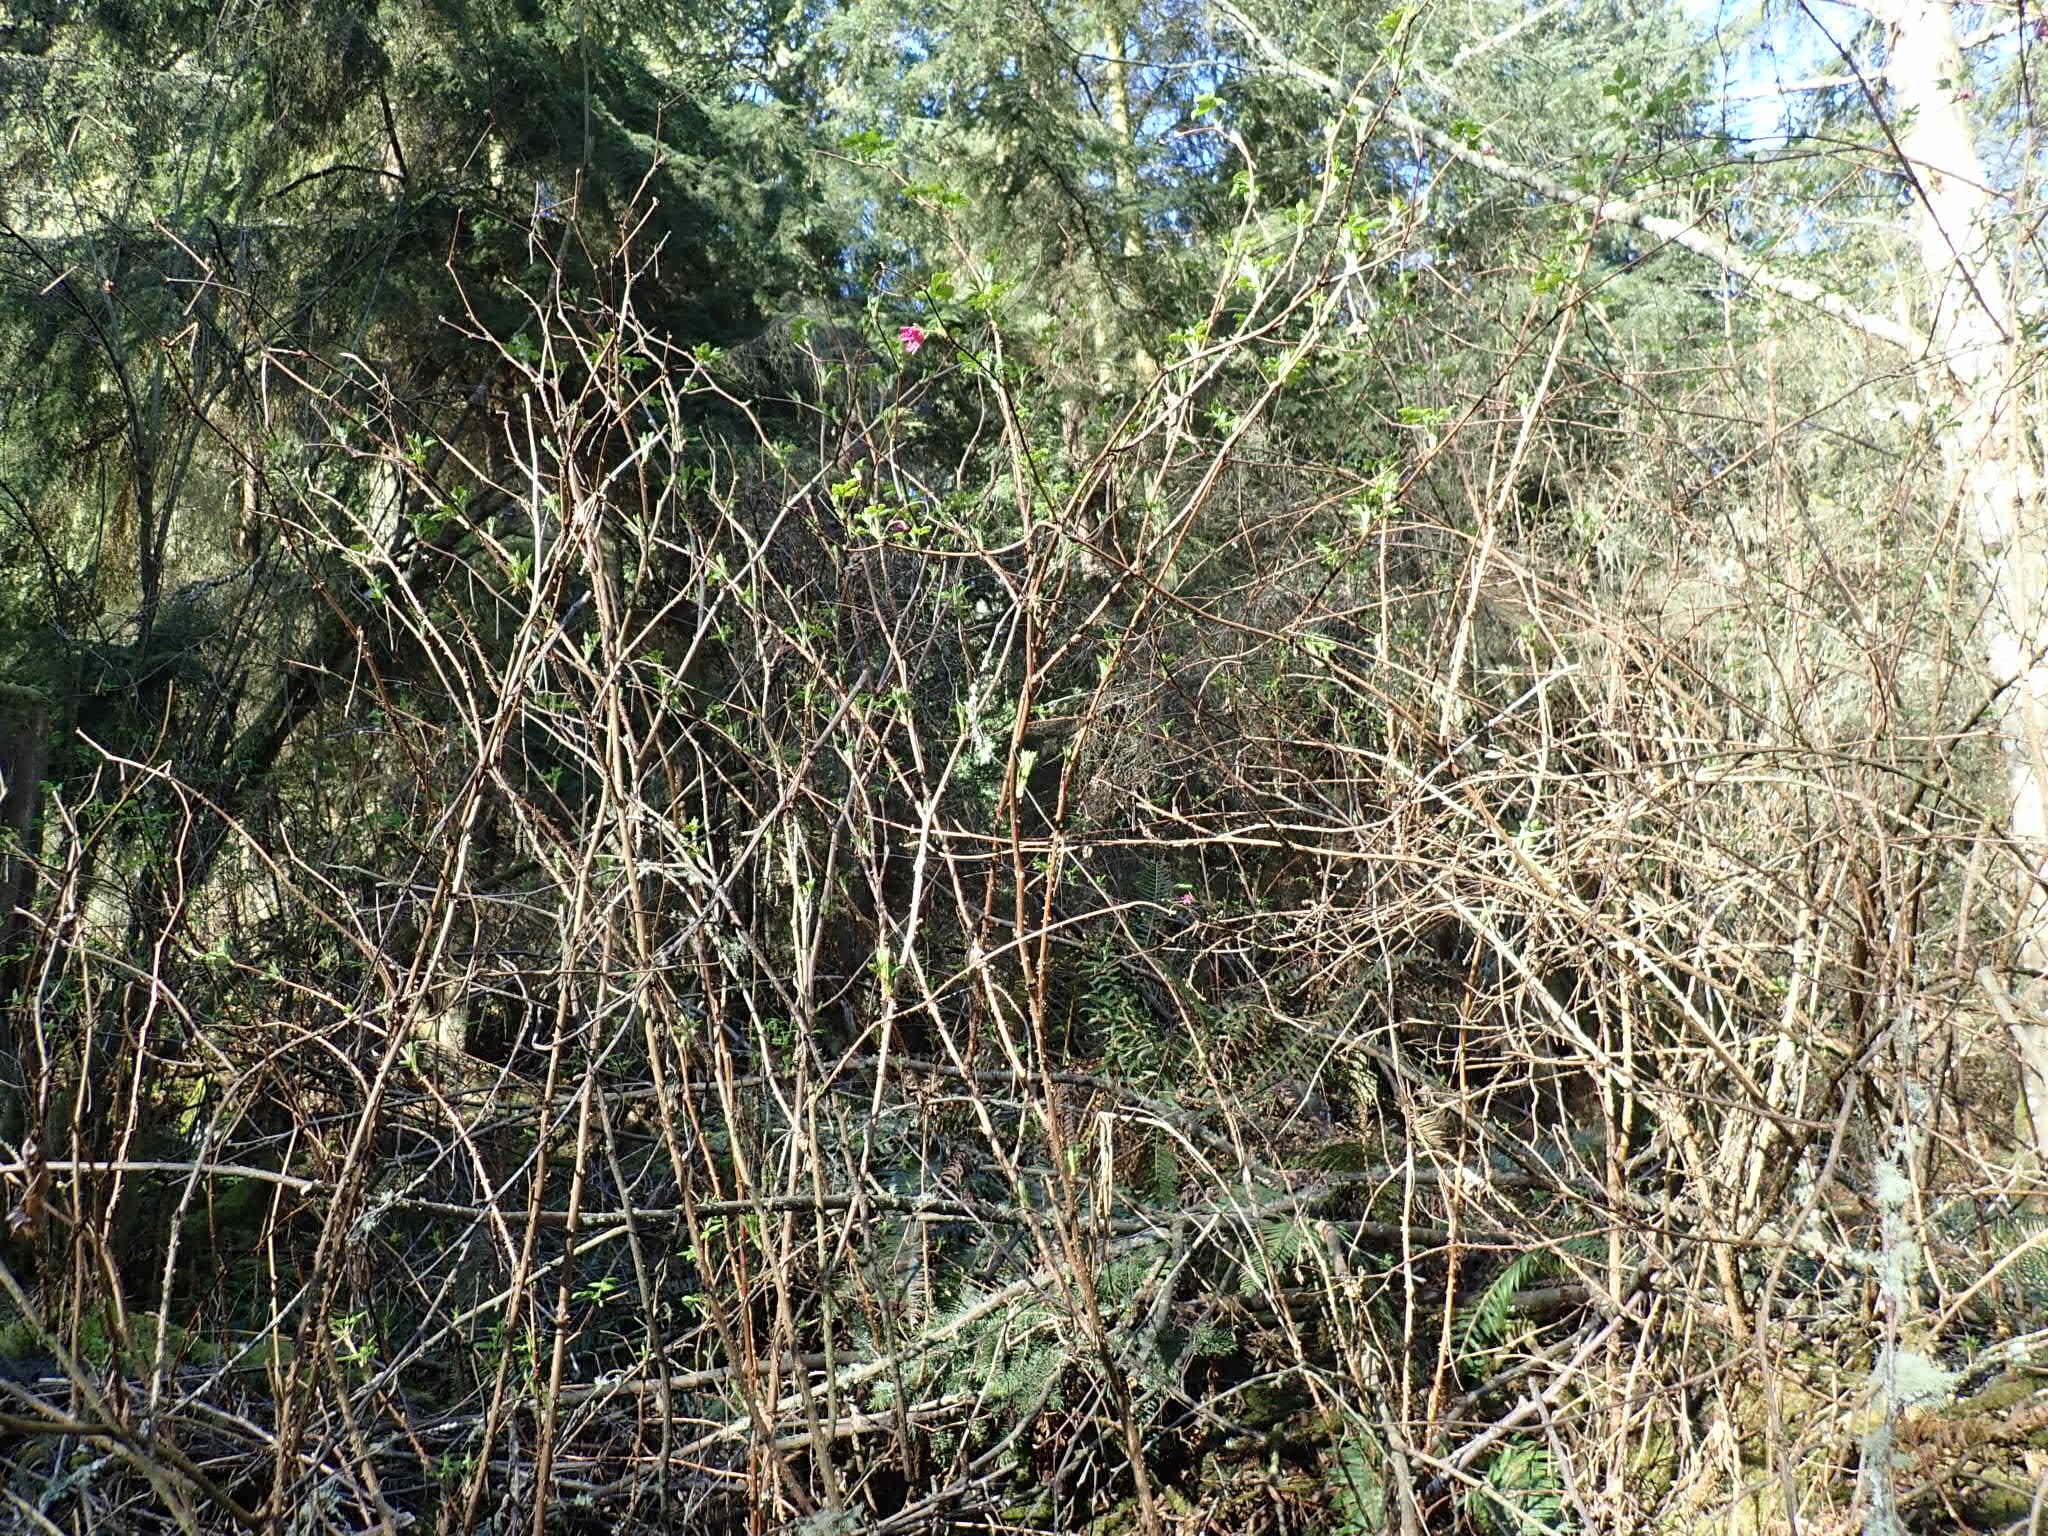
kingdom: Plantae
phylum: Tracheophyta
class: Magnoliopsida
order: Rosales
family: Rosaceae
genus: Rubus
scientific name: Rubus spectabilis
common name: Salmonberry
